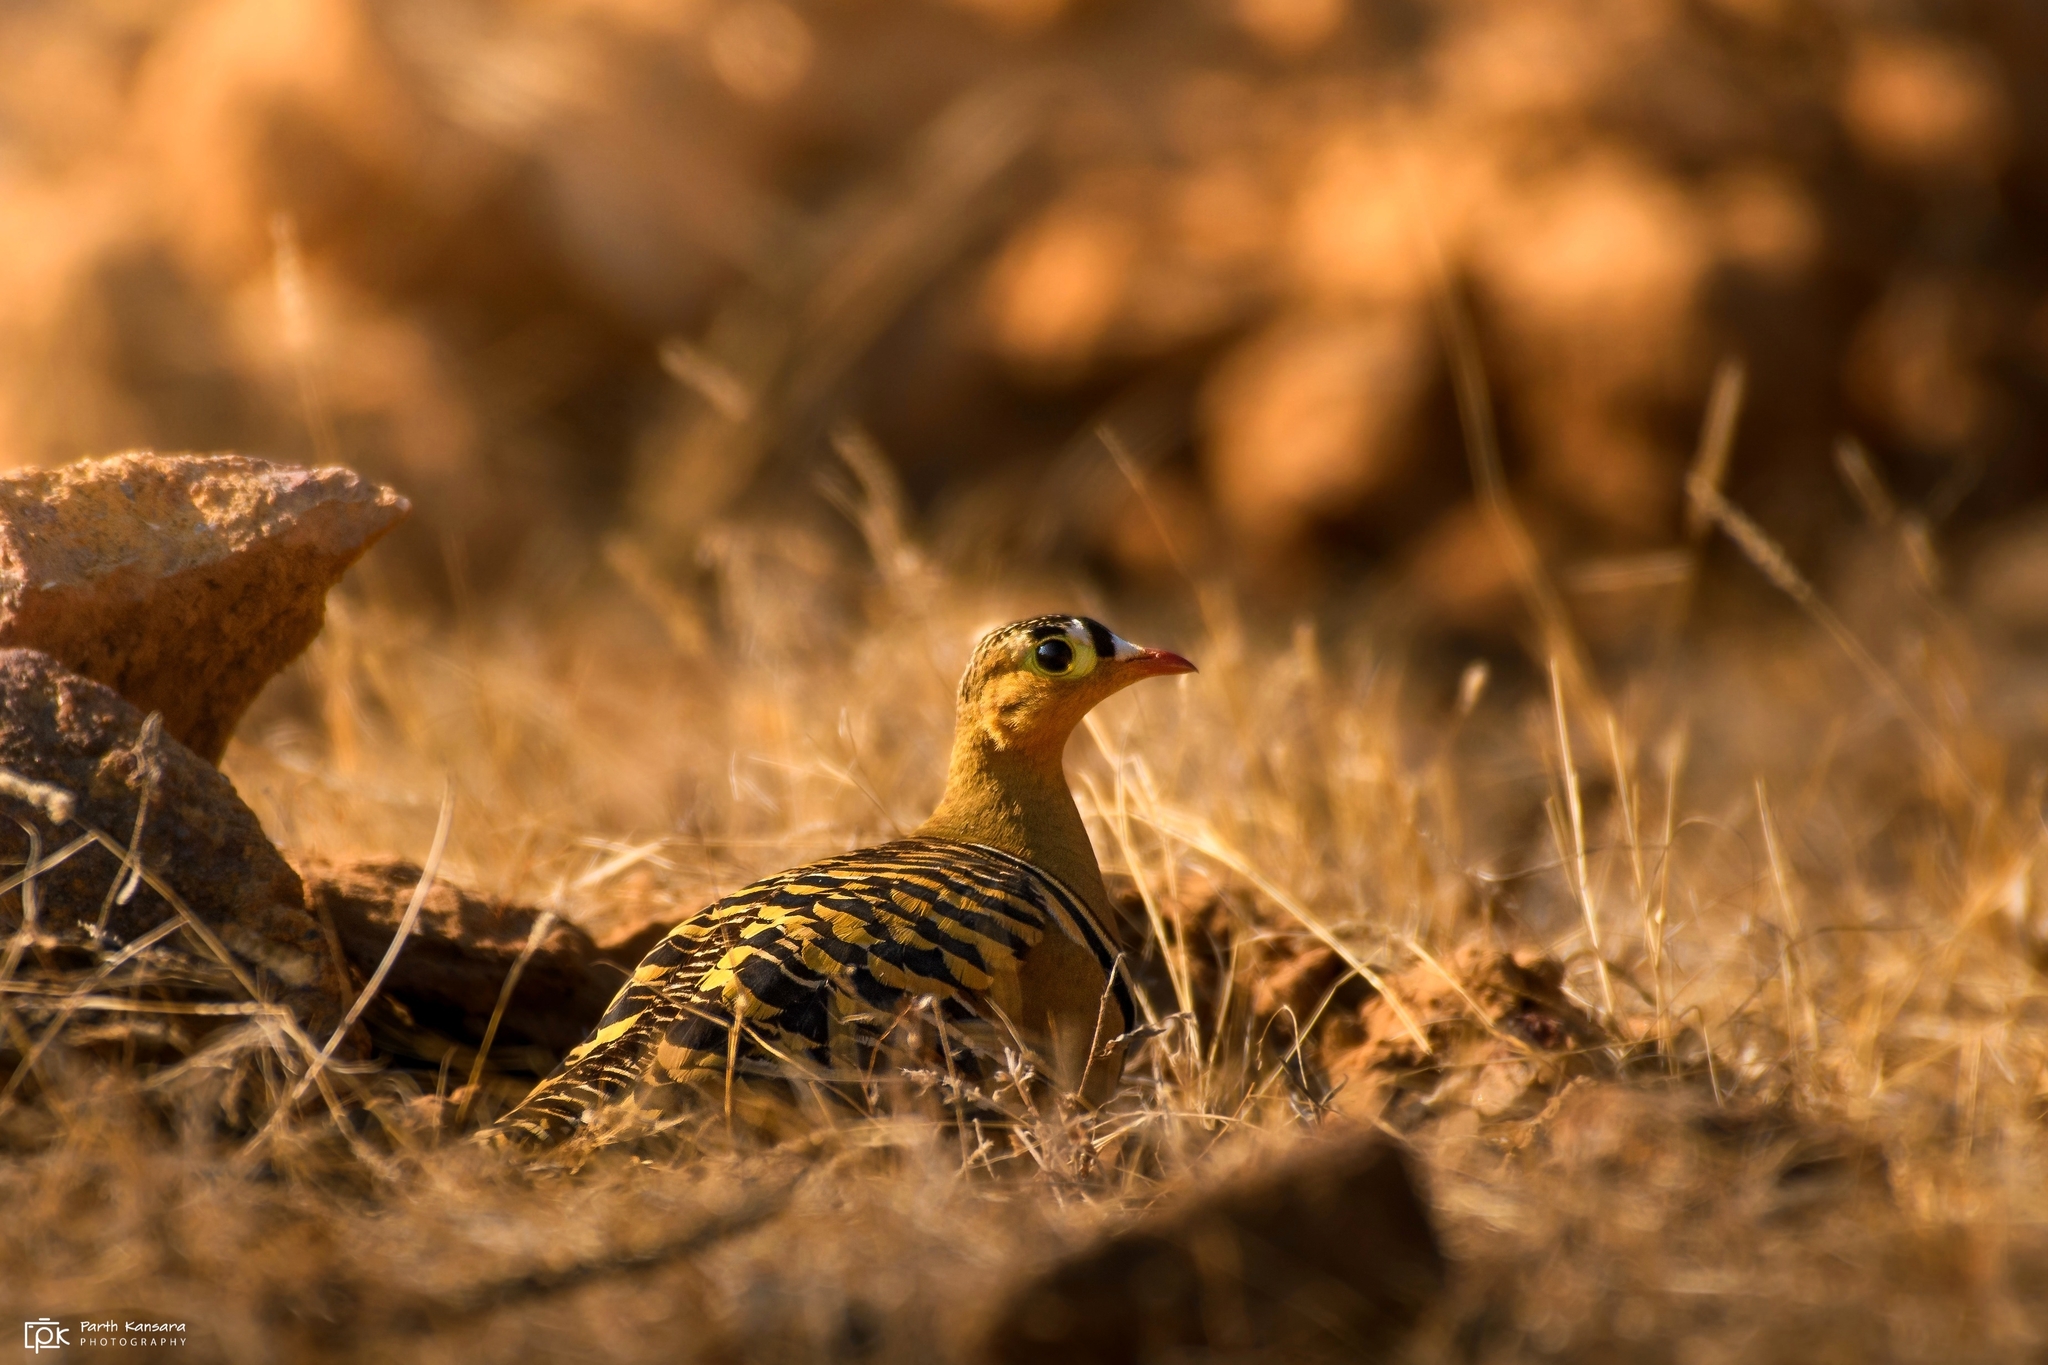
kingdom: Animalia
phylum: Chordata
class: Aves
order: Pteroclidiformes
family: Pteroclididae
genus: Pterocles
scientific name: Pterocles indicus
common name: Painted sandgrouse
